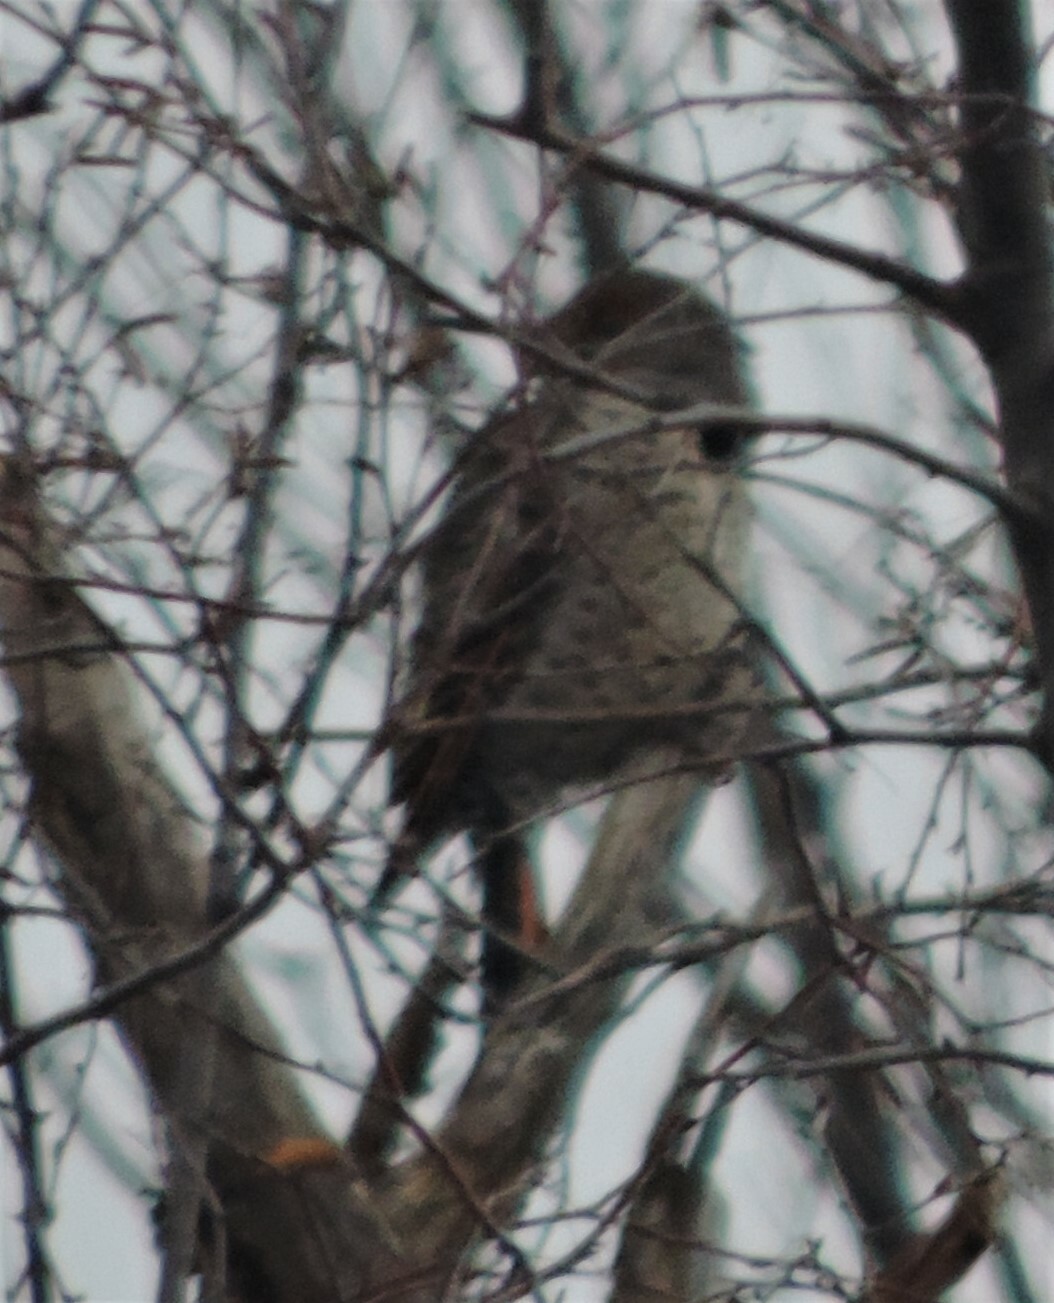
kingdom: Animalia
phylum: Chordata
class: Aves
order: Piciformes
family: Picidae
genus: Colaptes
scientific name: Colaptes auratus
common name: Northern flicker
